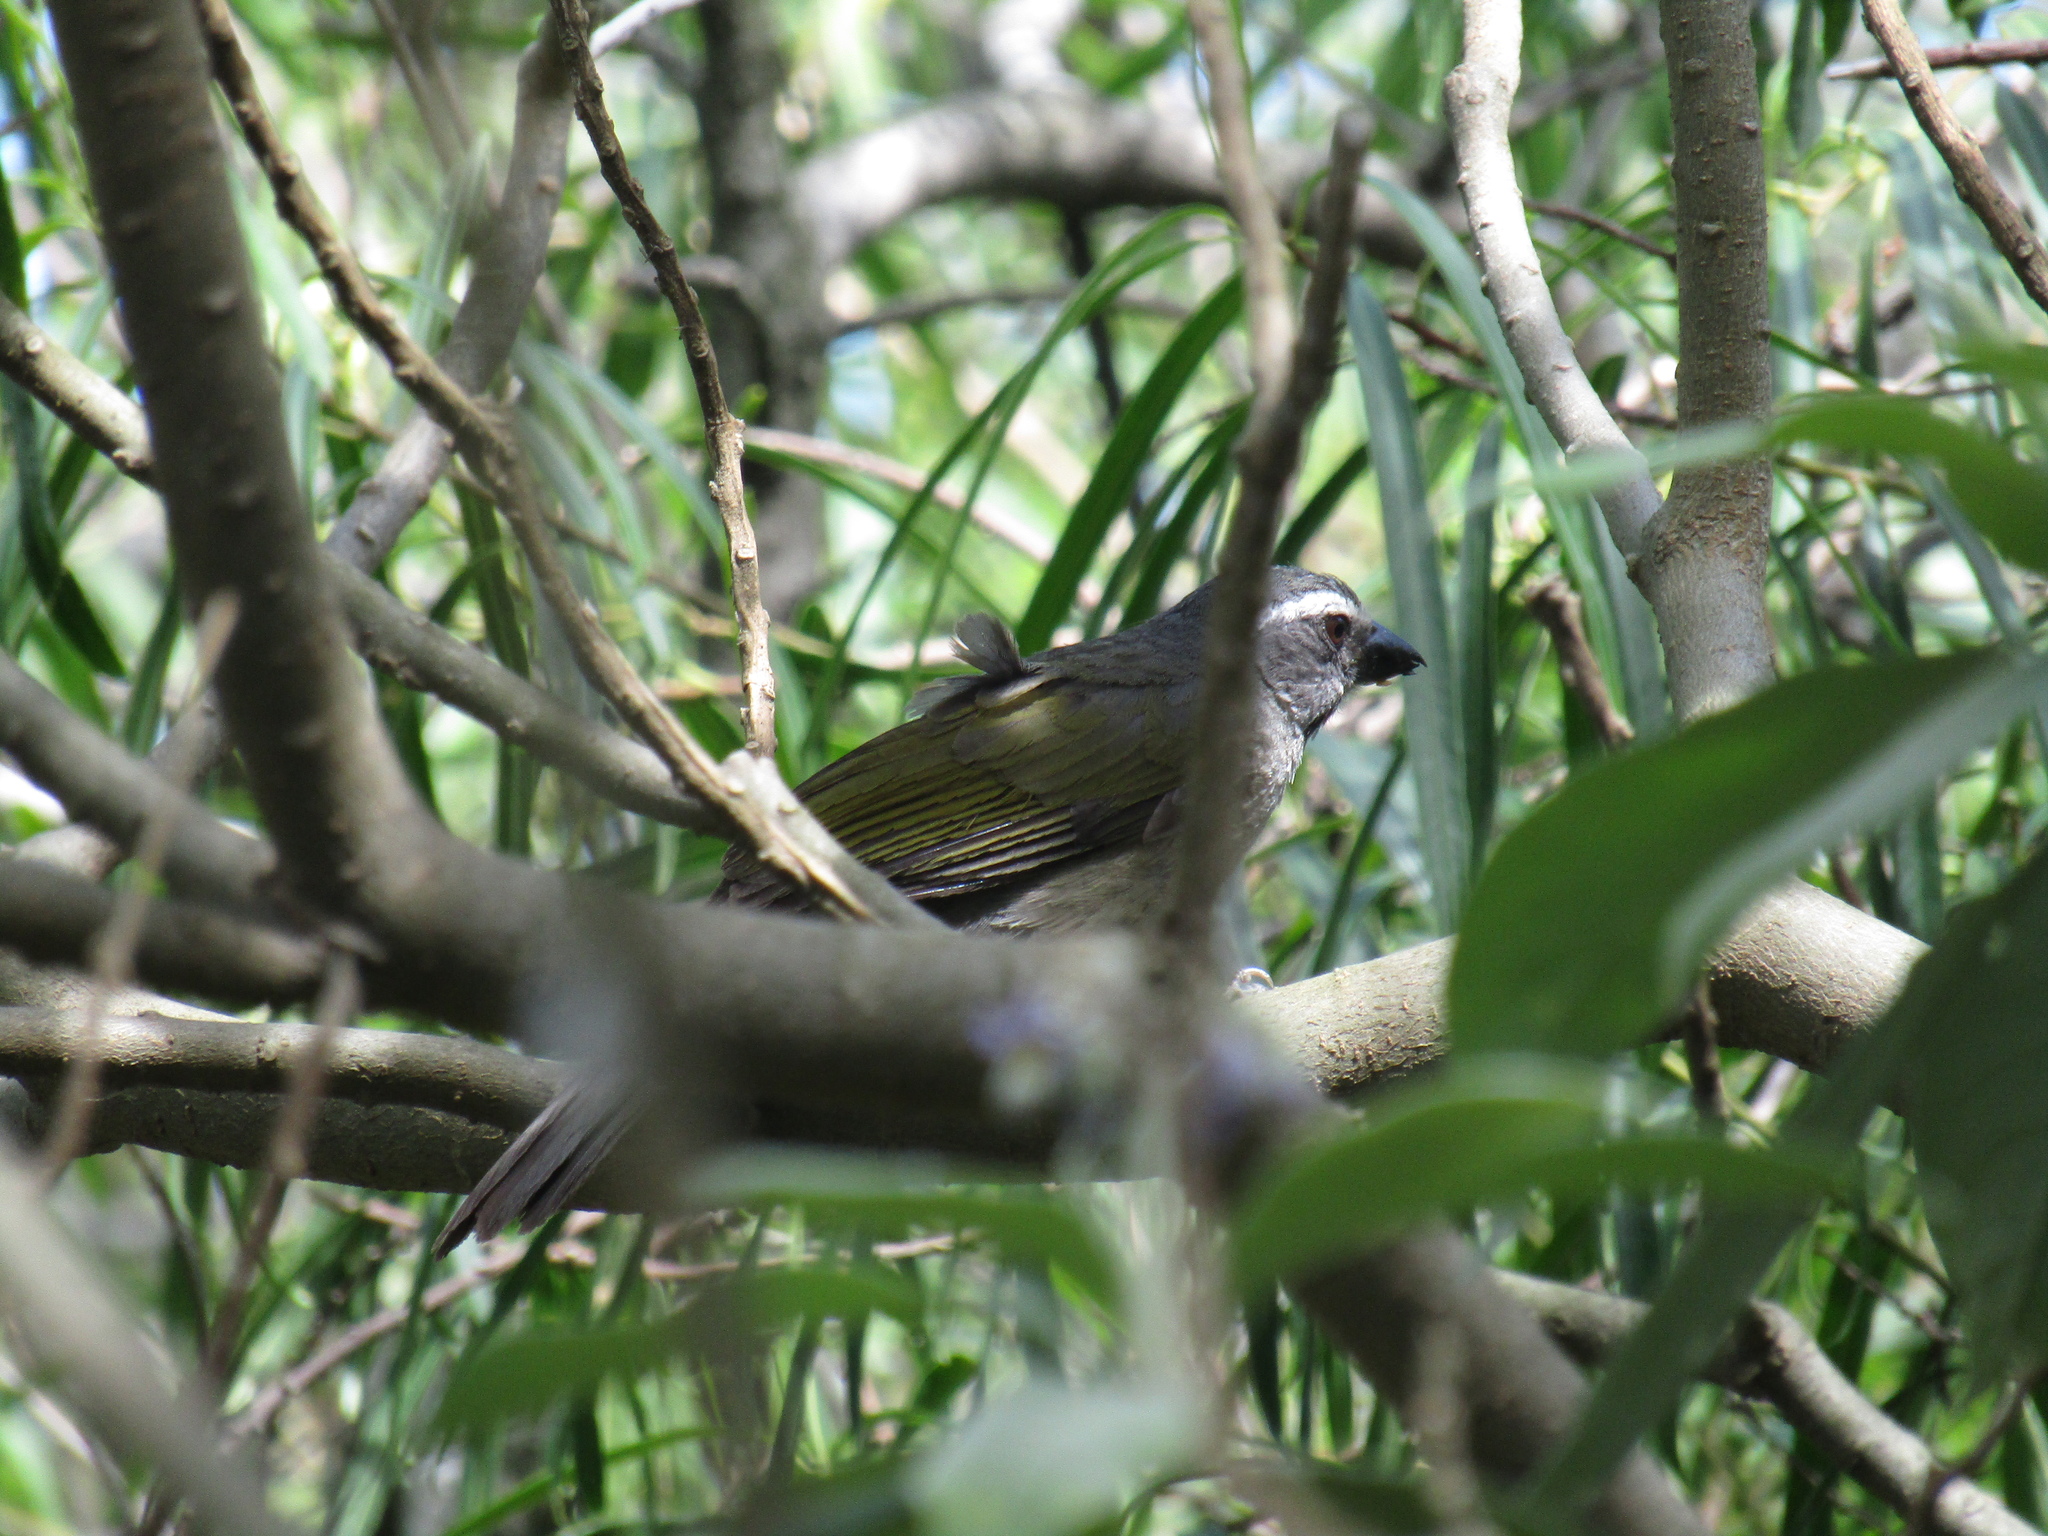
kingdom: Animalia
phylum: Chordata
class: Aves
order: Passeriformes
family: Thraupidae
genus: Saltator
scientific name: Saltator similis
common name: Green-winged saltator
